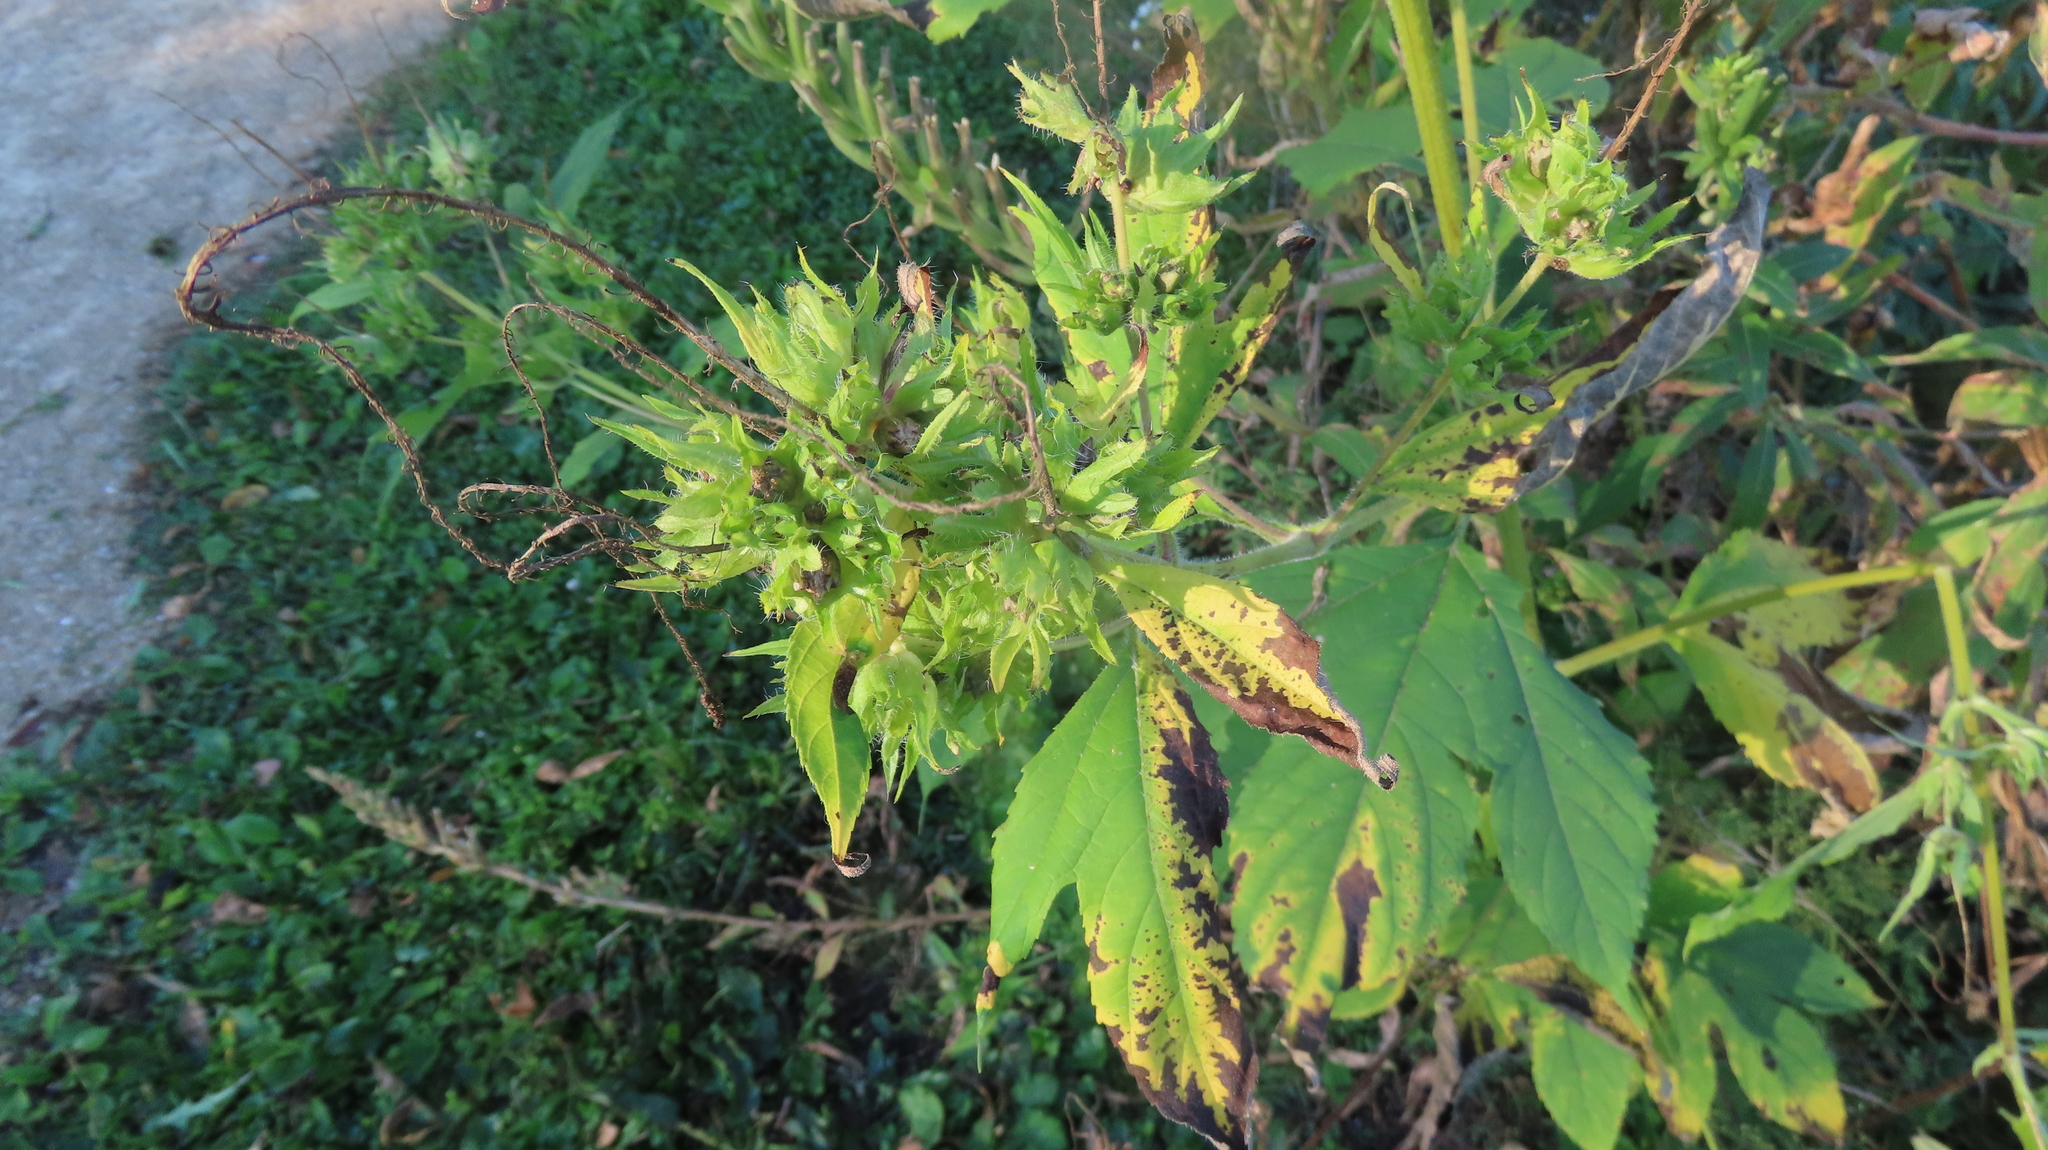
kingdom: Plantae
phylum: Tracheophyta
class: Magnoliopsida
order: Asterales
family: Asteraceae
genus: Ambrosia
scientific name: Ambrosia trifida
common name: Giant ragweed
